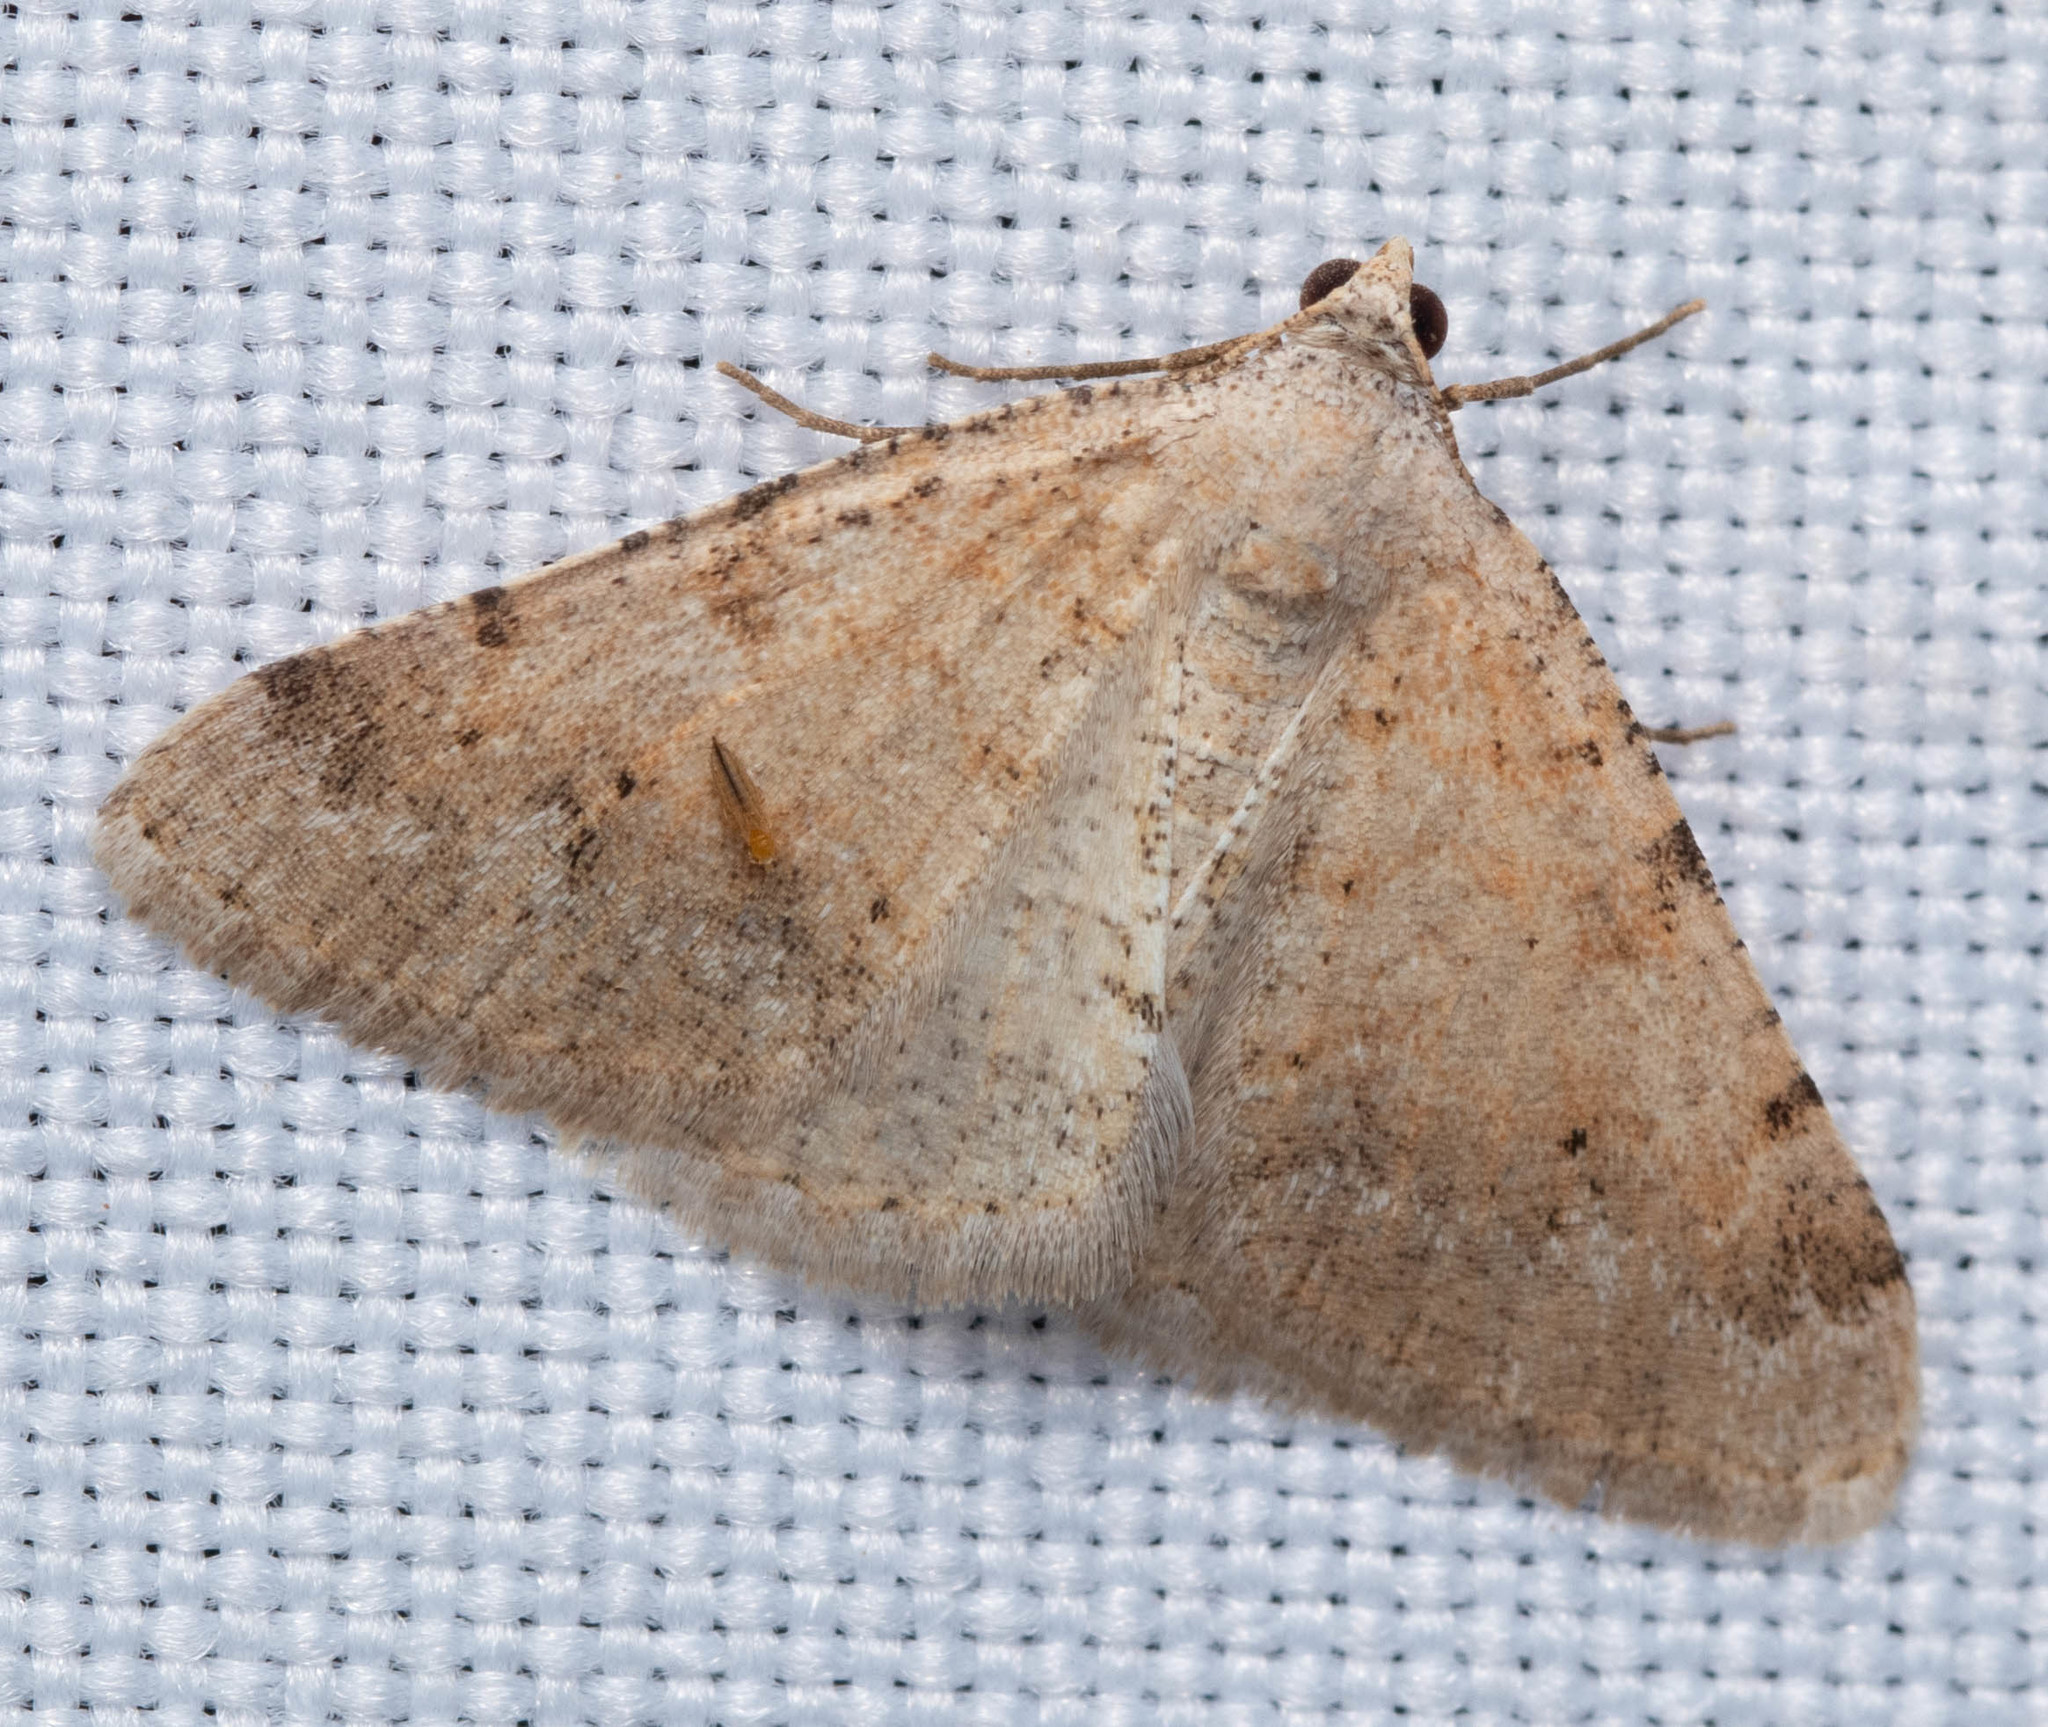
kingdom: Animalia
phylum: Arthropoda
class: Insecta
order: Lepidoptera
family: Geometridae
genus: Digrammia
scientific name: Digrammia colorata
